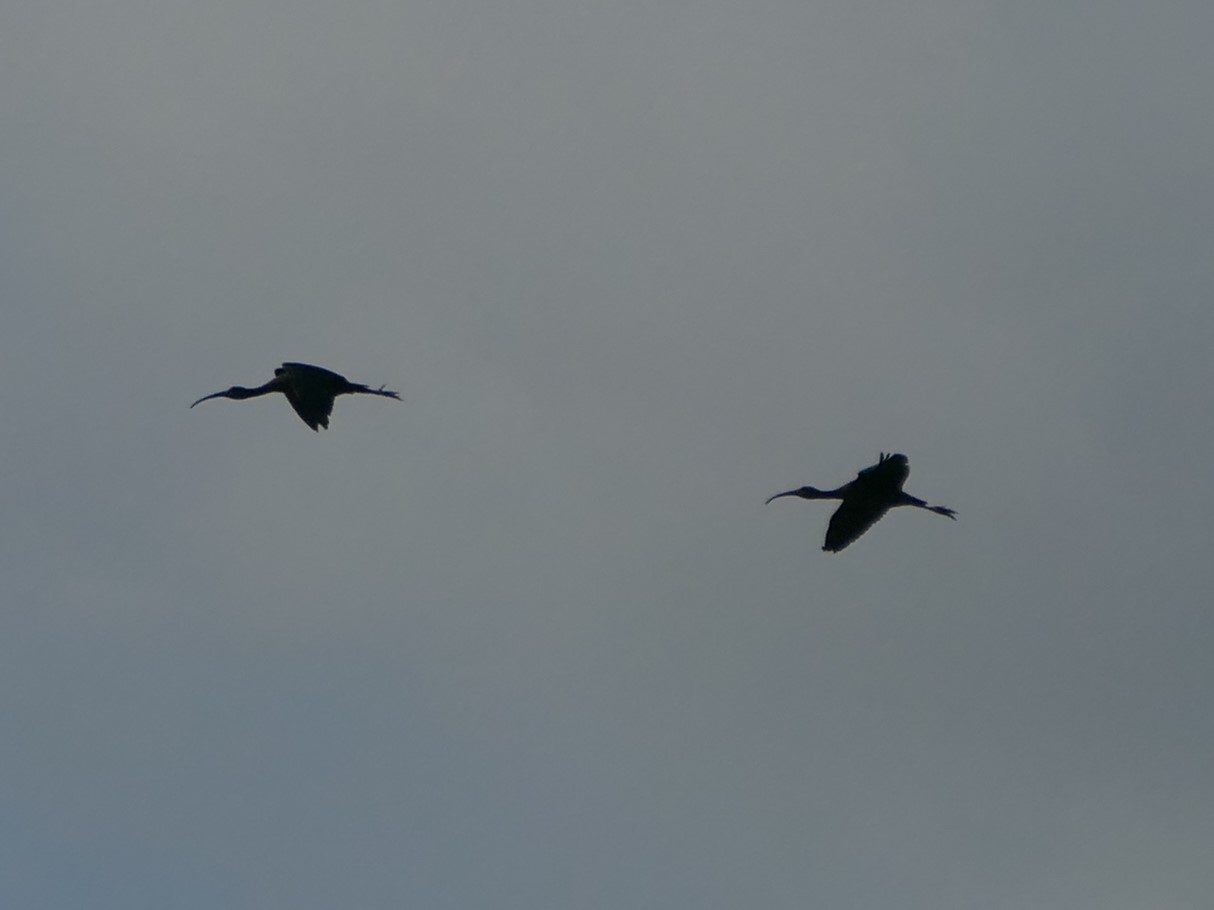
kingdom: Animalia
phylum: Chordata
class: Aves
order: Pelecaniformes
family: Threskiornithidae
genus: Plegadis
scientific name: Plegadis falcinellus
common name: Glossy ibis
